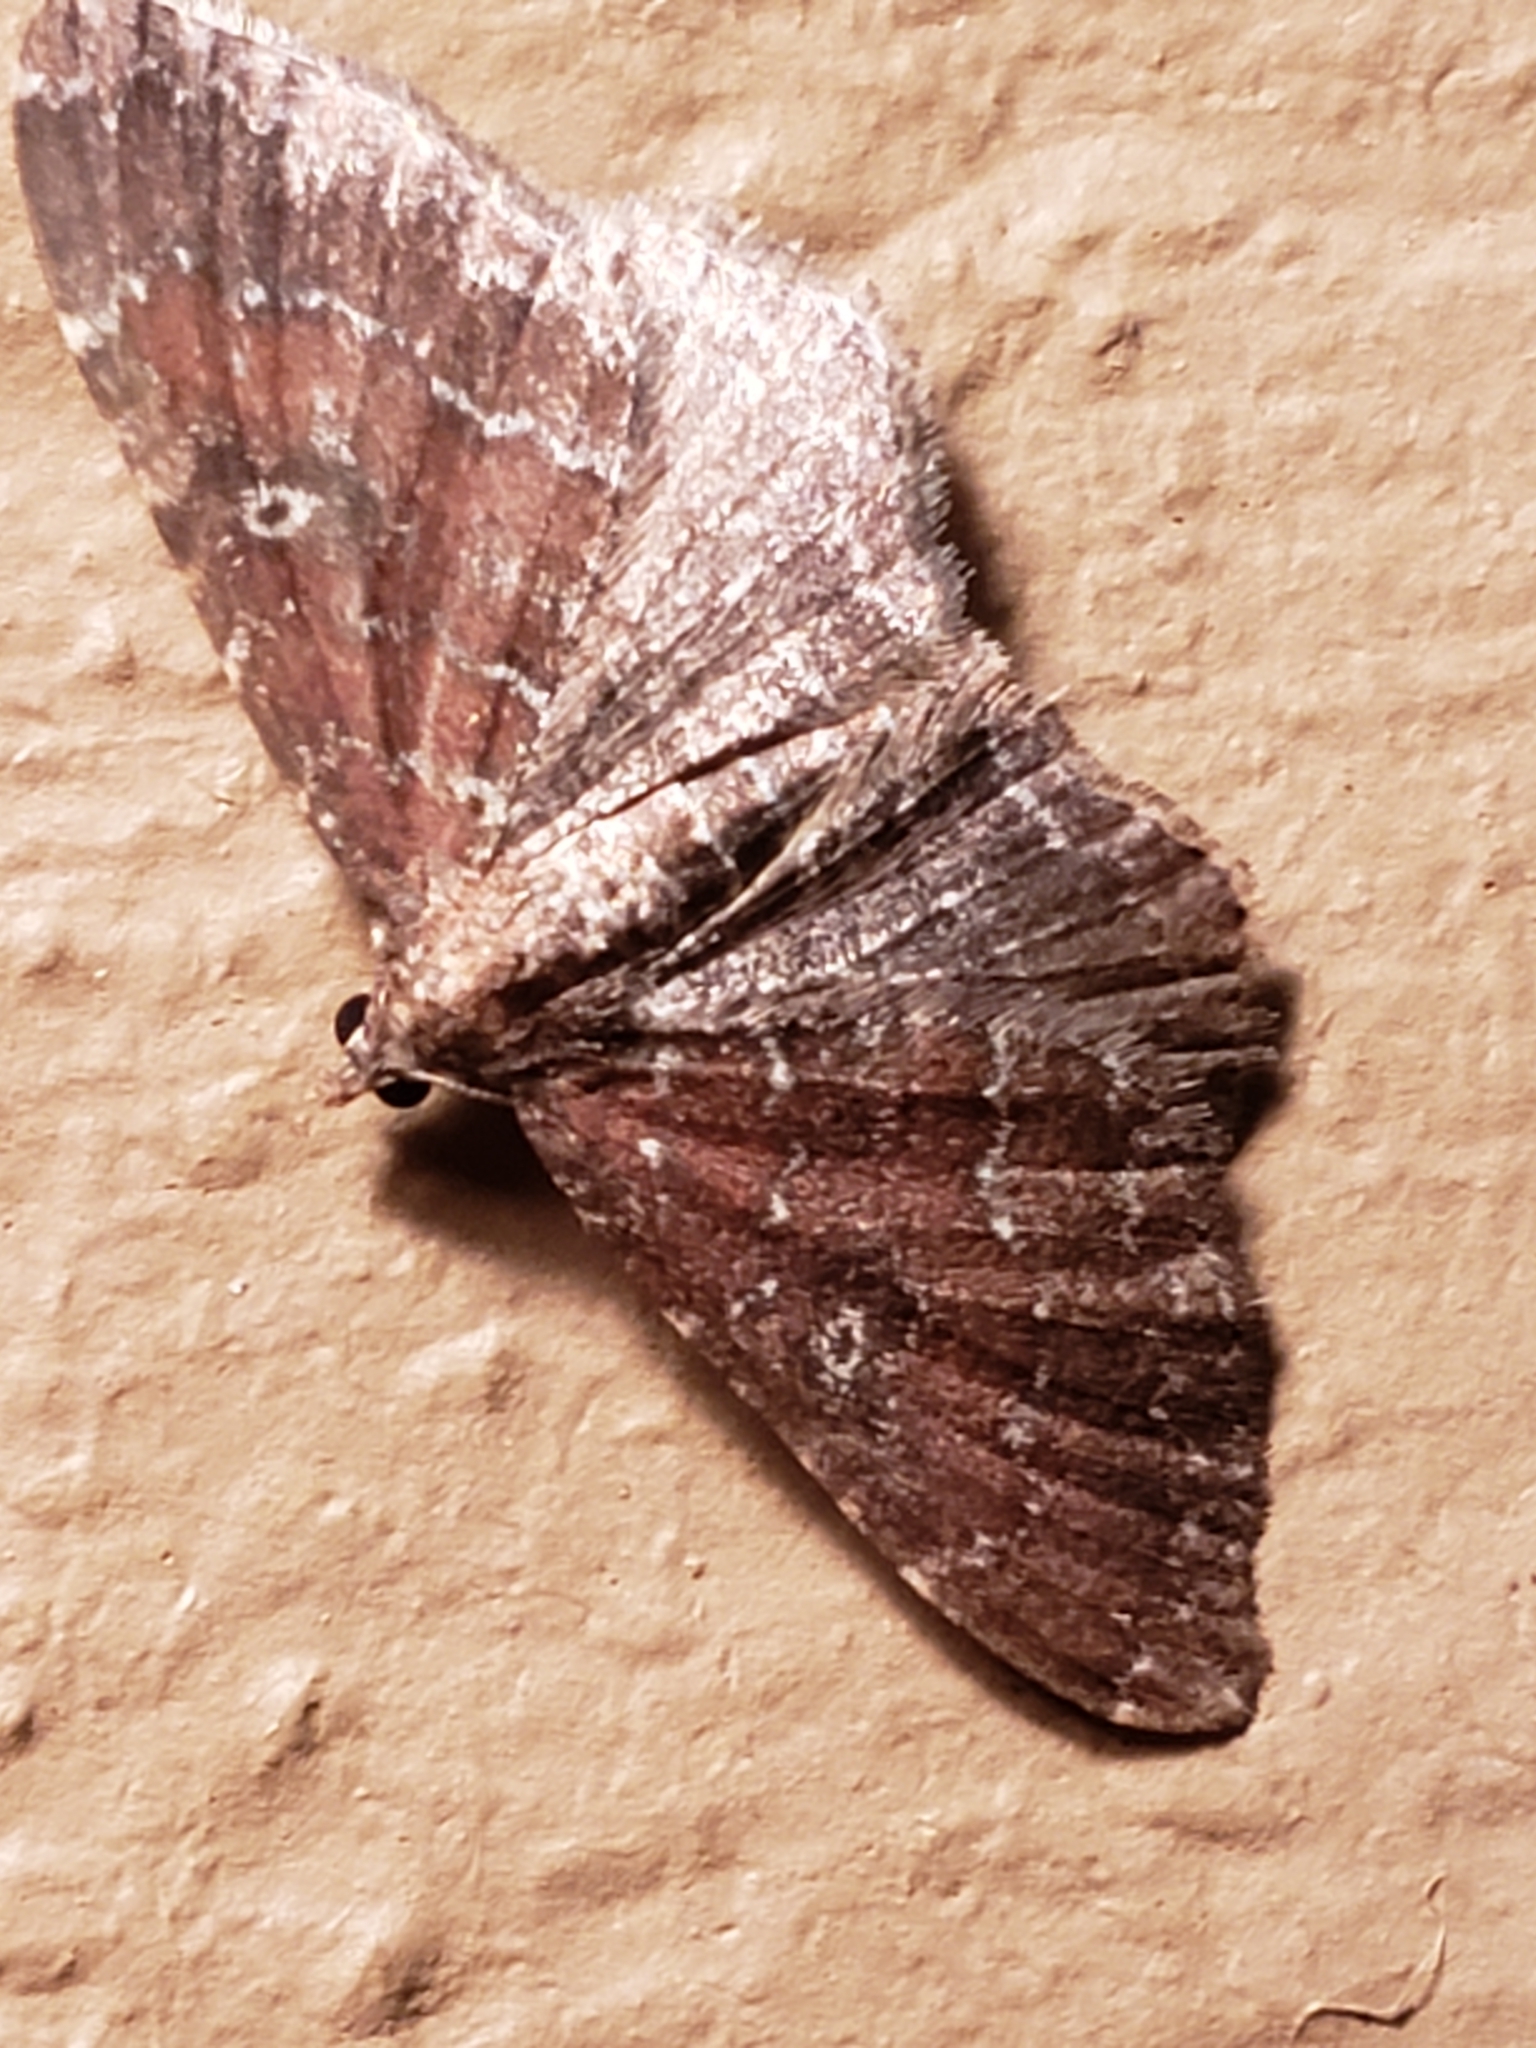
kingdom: Animalia
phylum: Arthropoda
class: Insecta
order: Lepidoptera
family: Geometridae
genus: Orthonama
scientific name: Orthonama obstipata
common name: The gem
